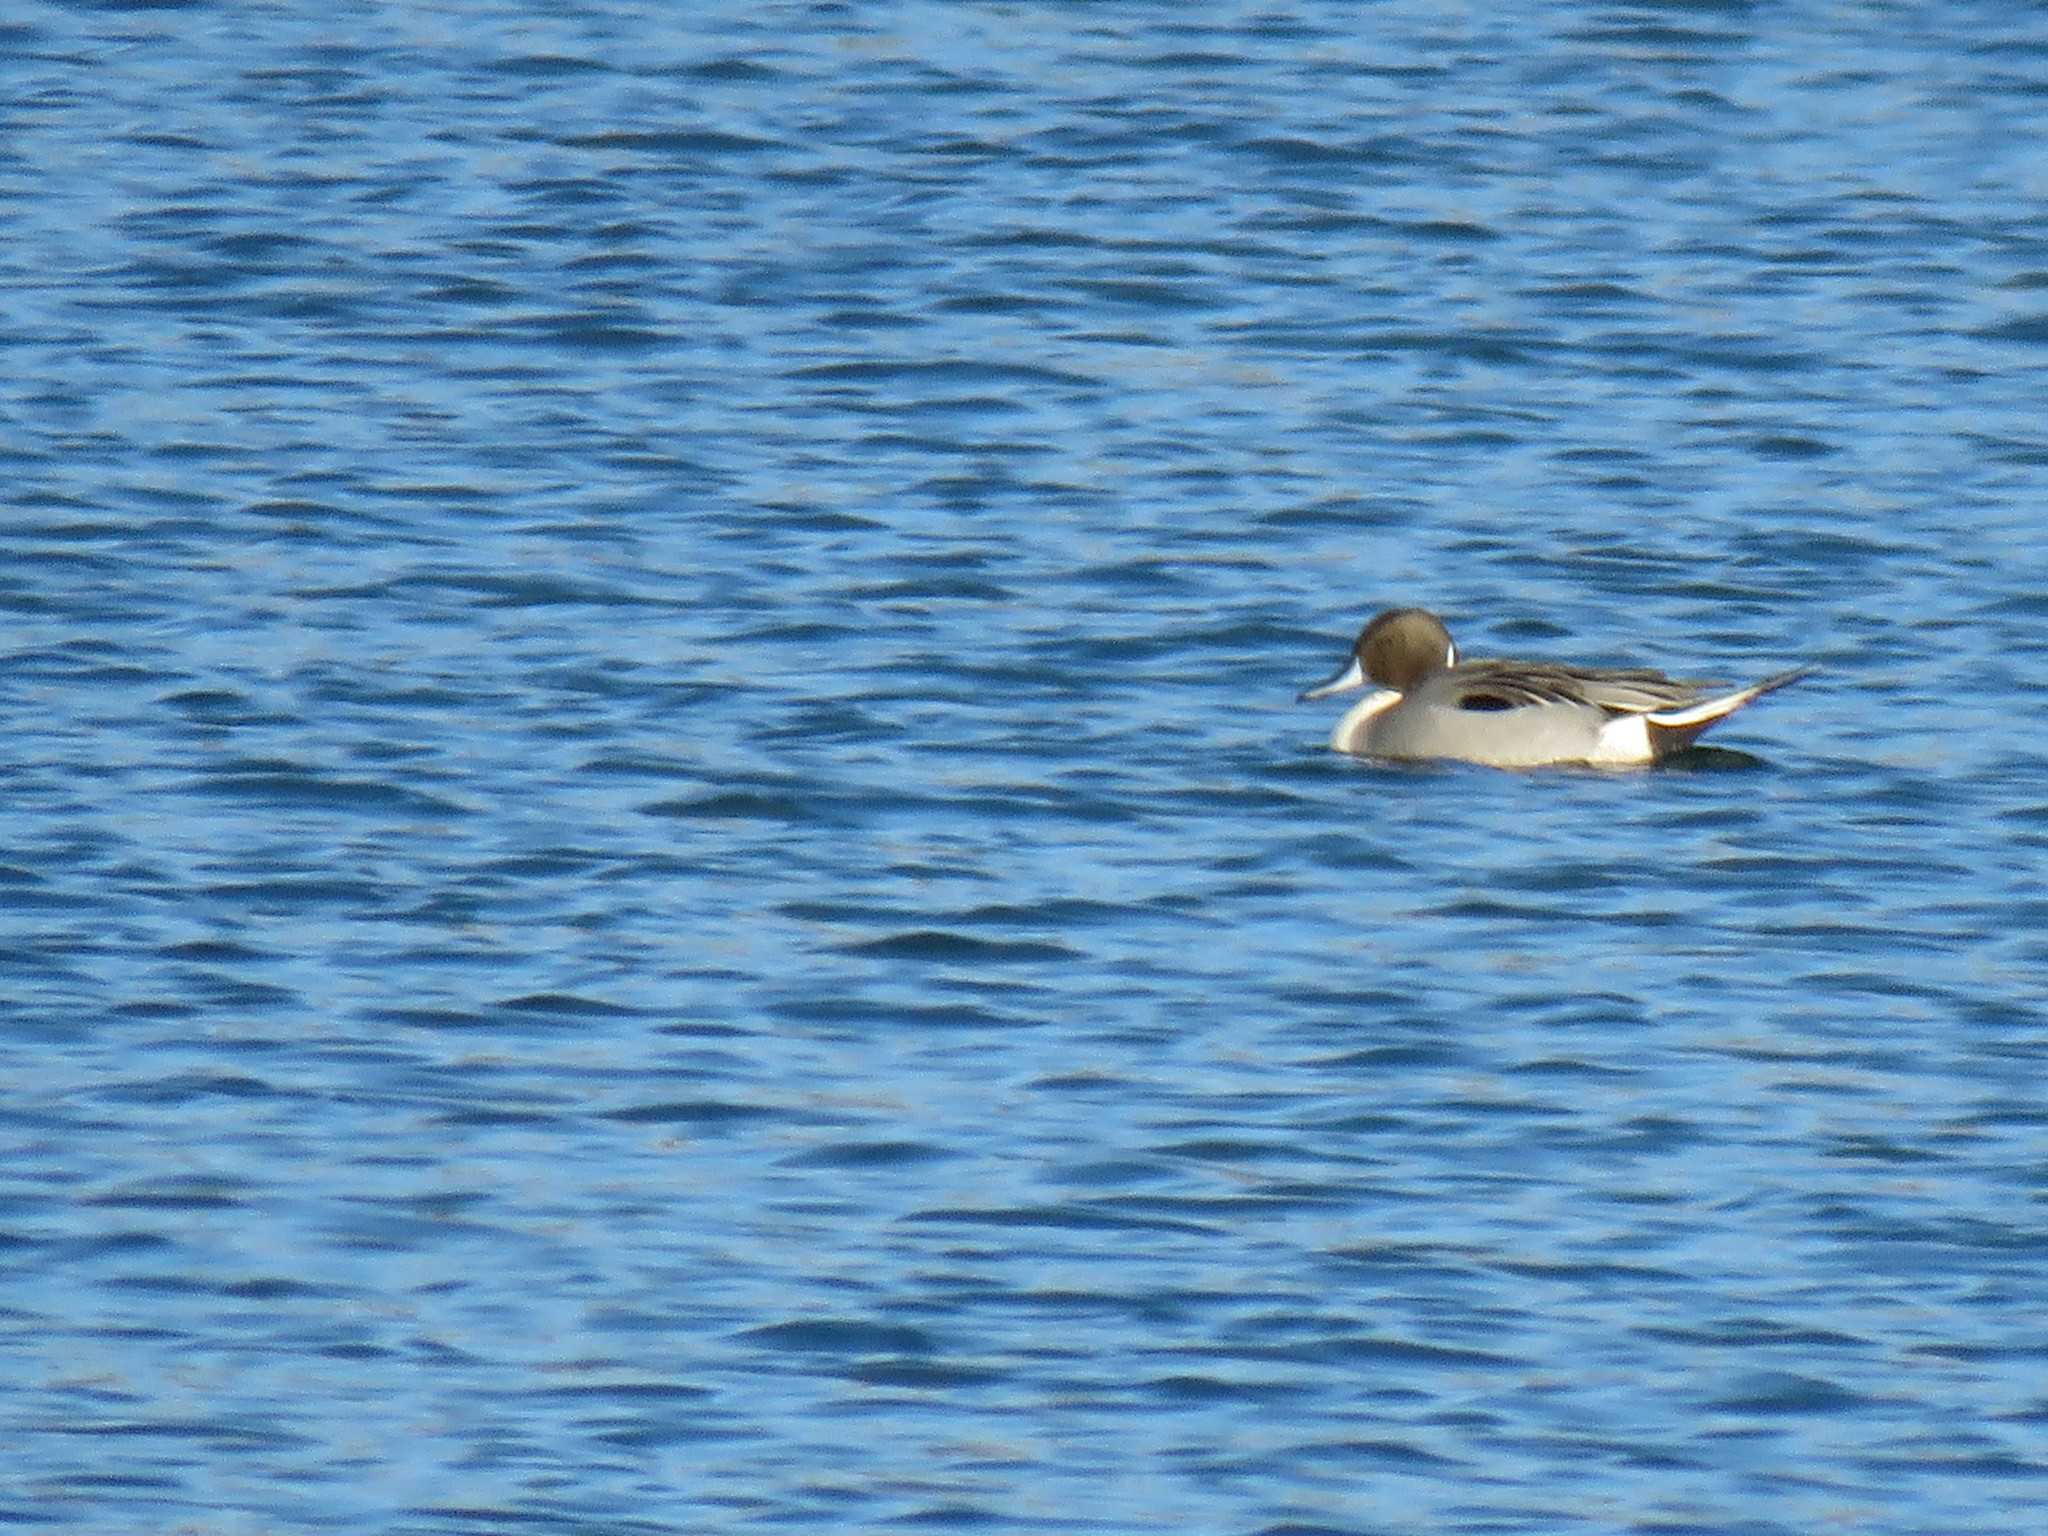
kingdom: Animalia
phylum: Chordata
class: Aves
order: Anseriformes
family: Anatidae
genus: Anas
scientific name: Anas acuta
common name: Northern pintail
